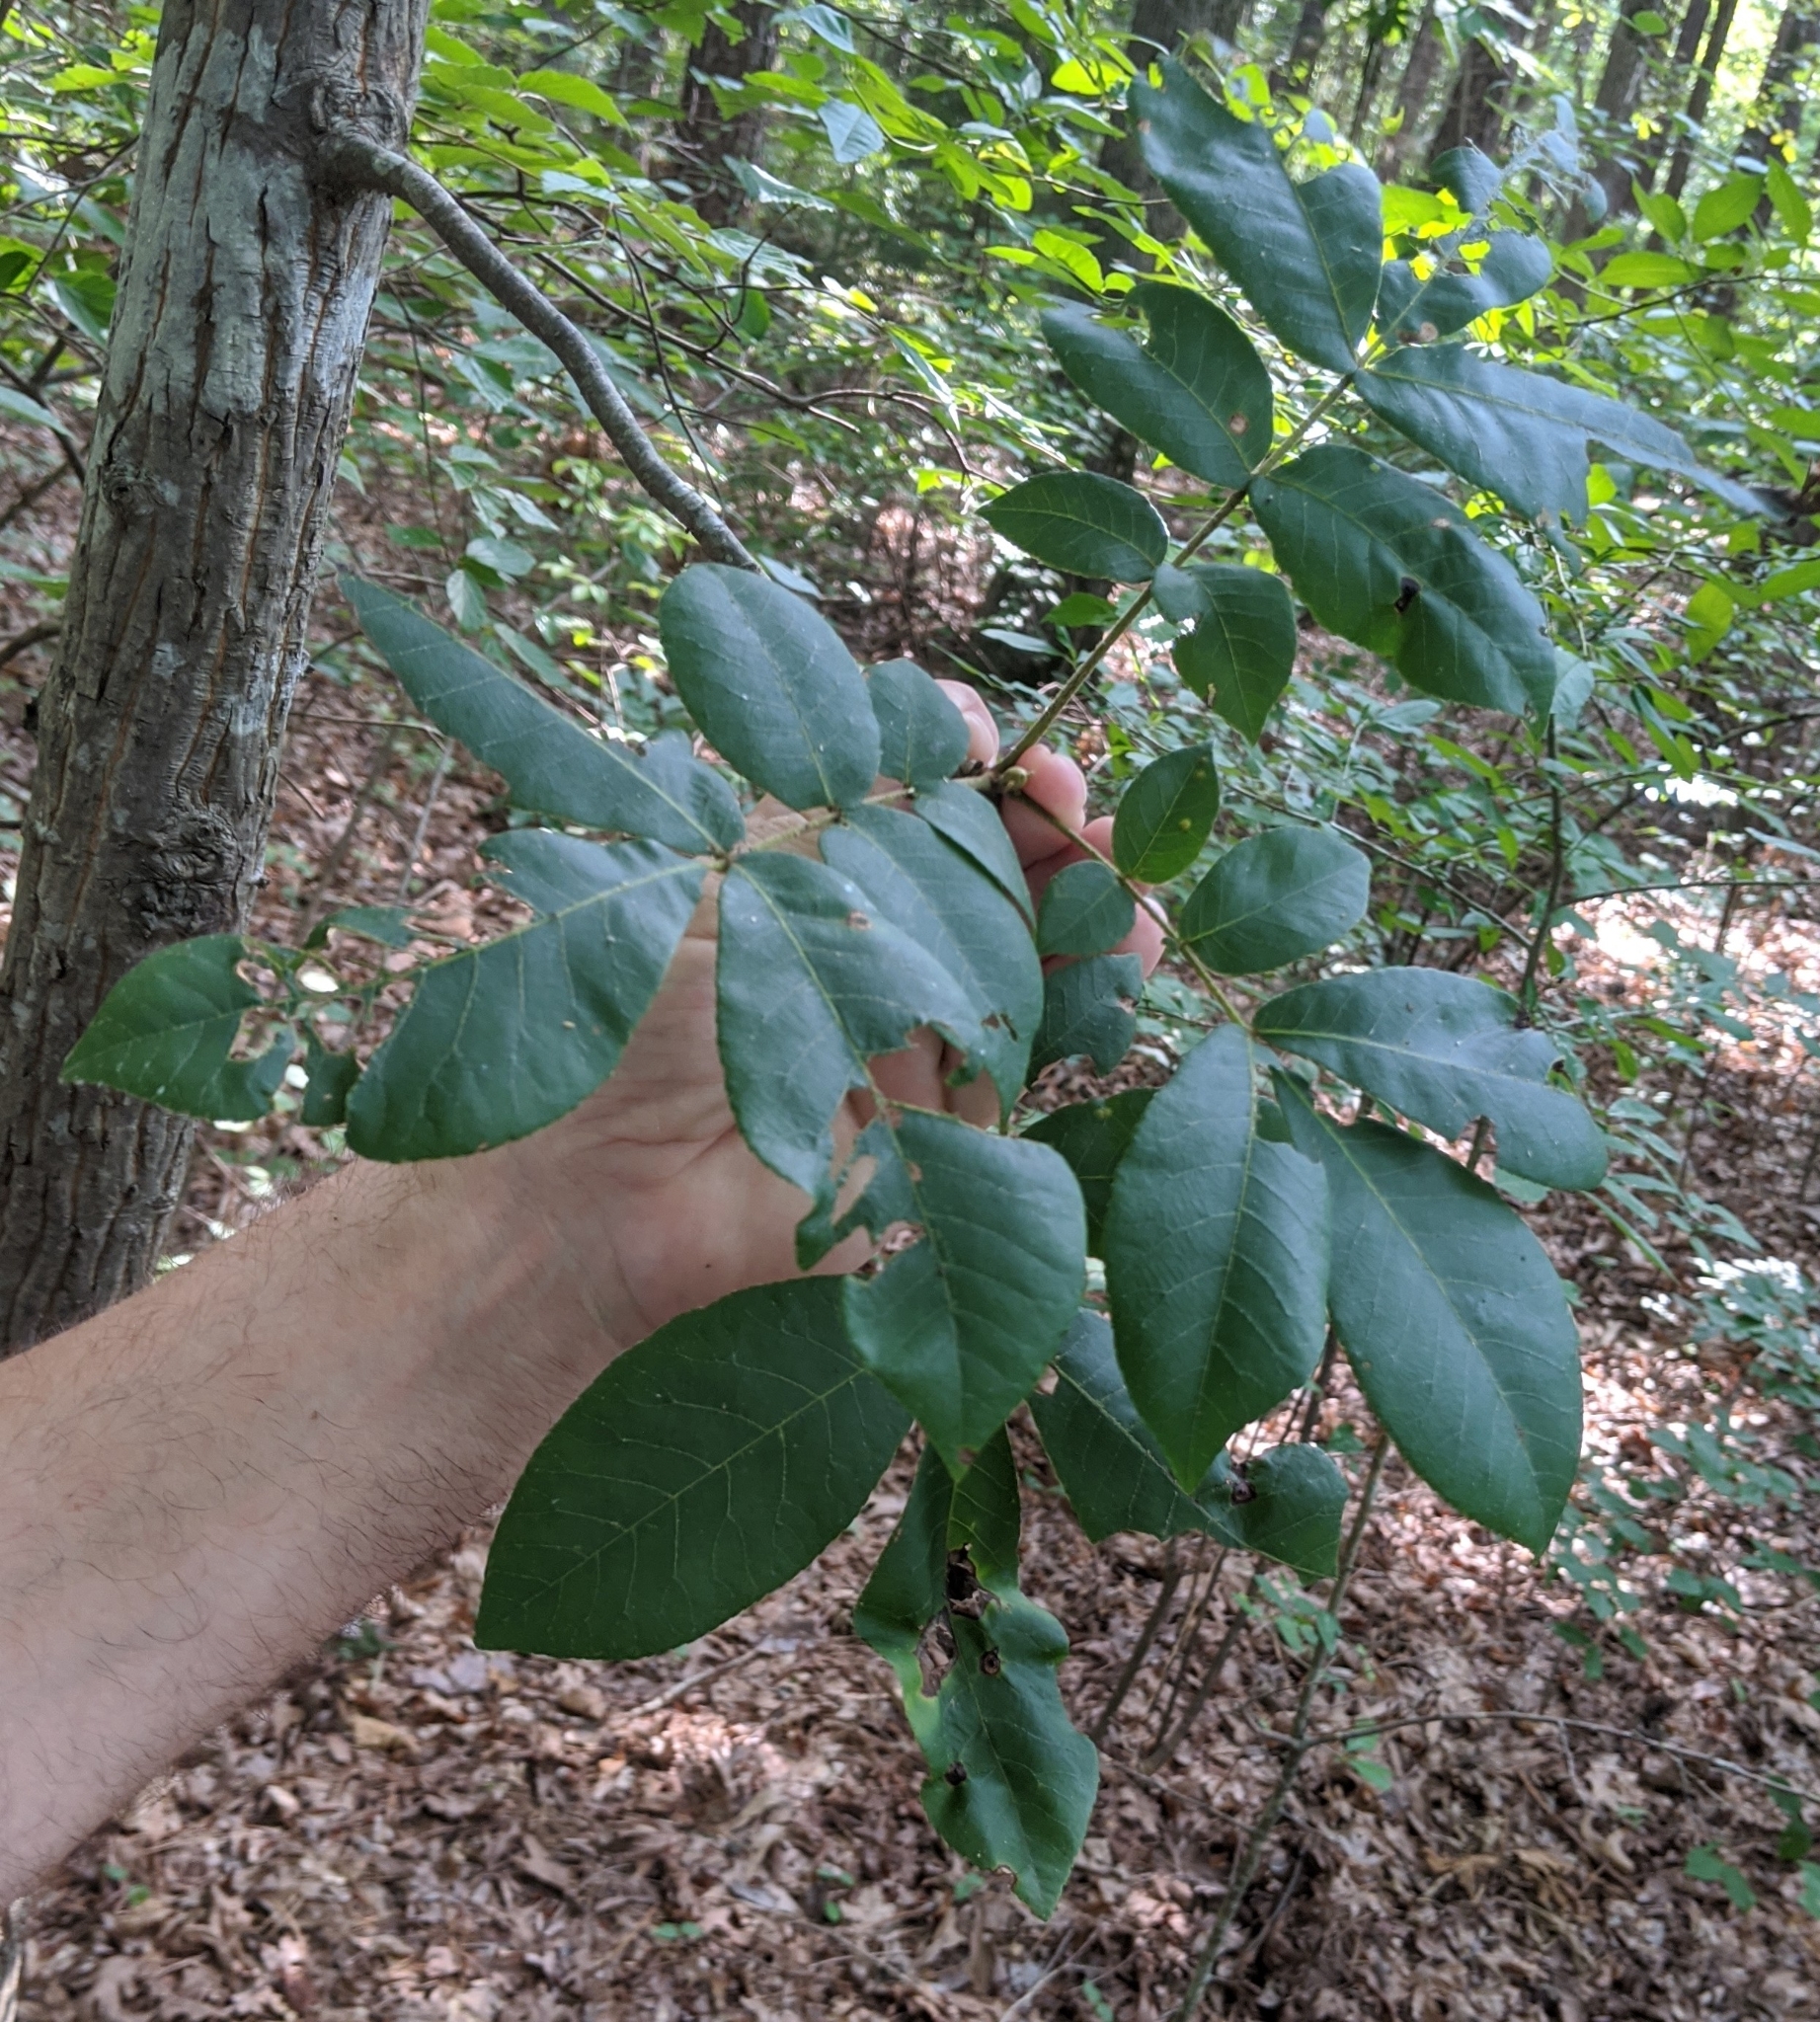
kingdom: Plantae
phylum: Tracheophyta
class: Magnoliopsida
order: Fagales
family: Juglandaceae
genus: Carya
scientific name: Carya alba
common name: Mockernut hickory
